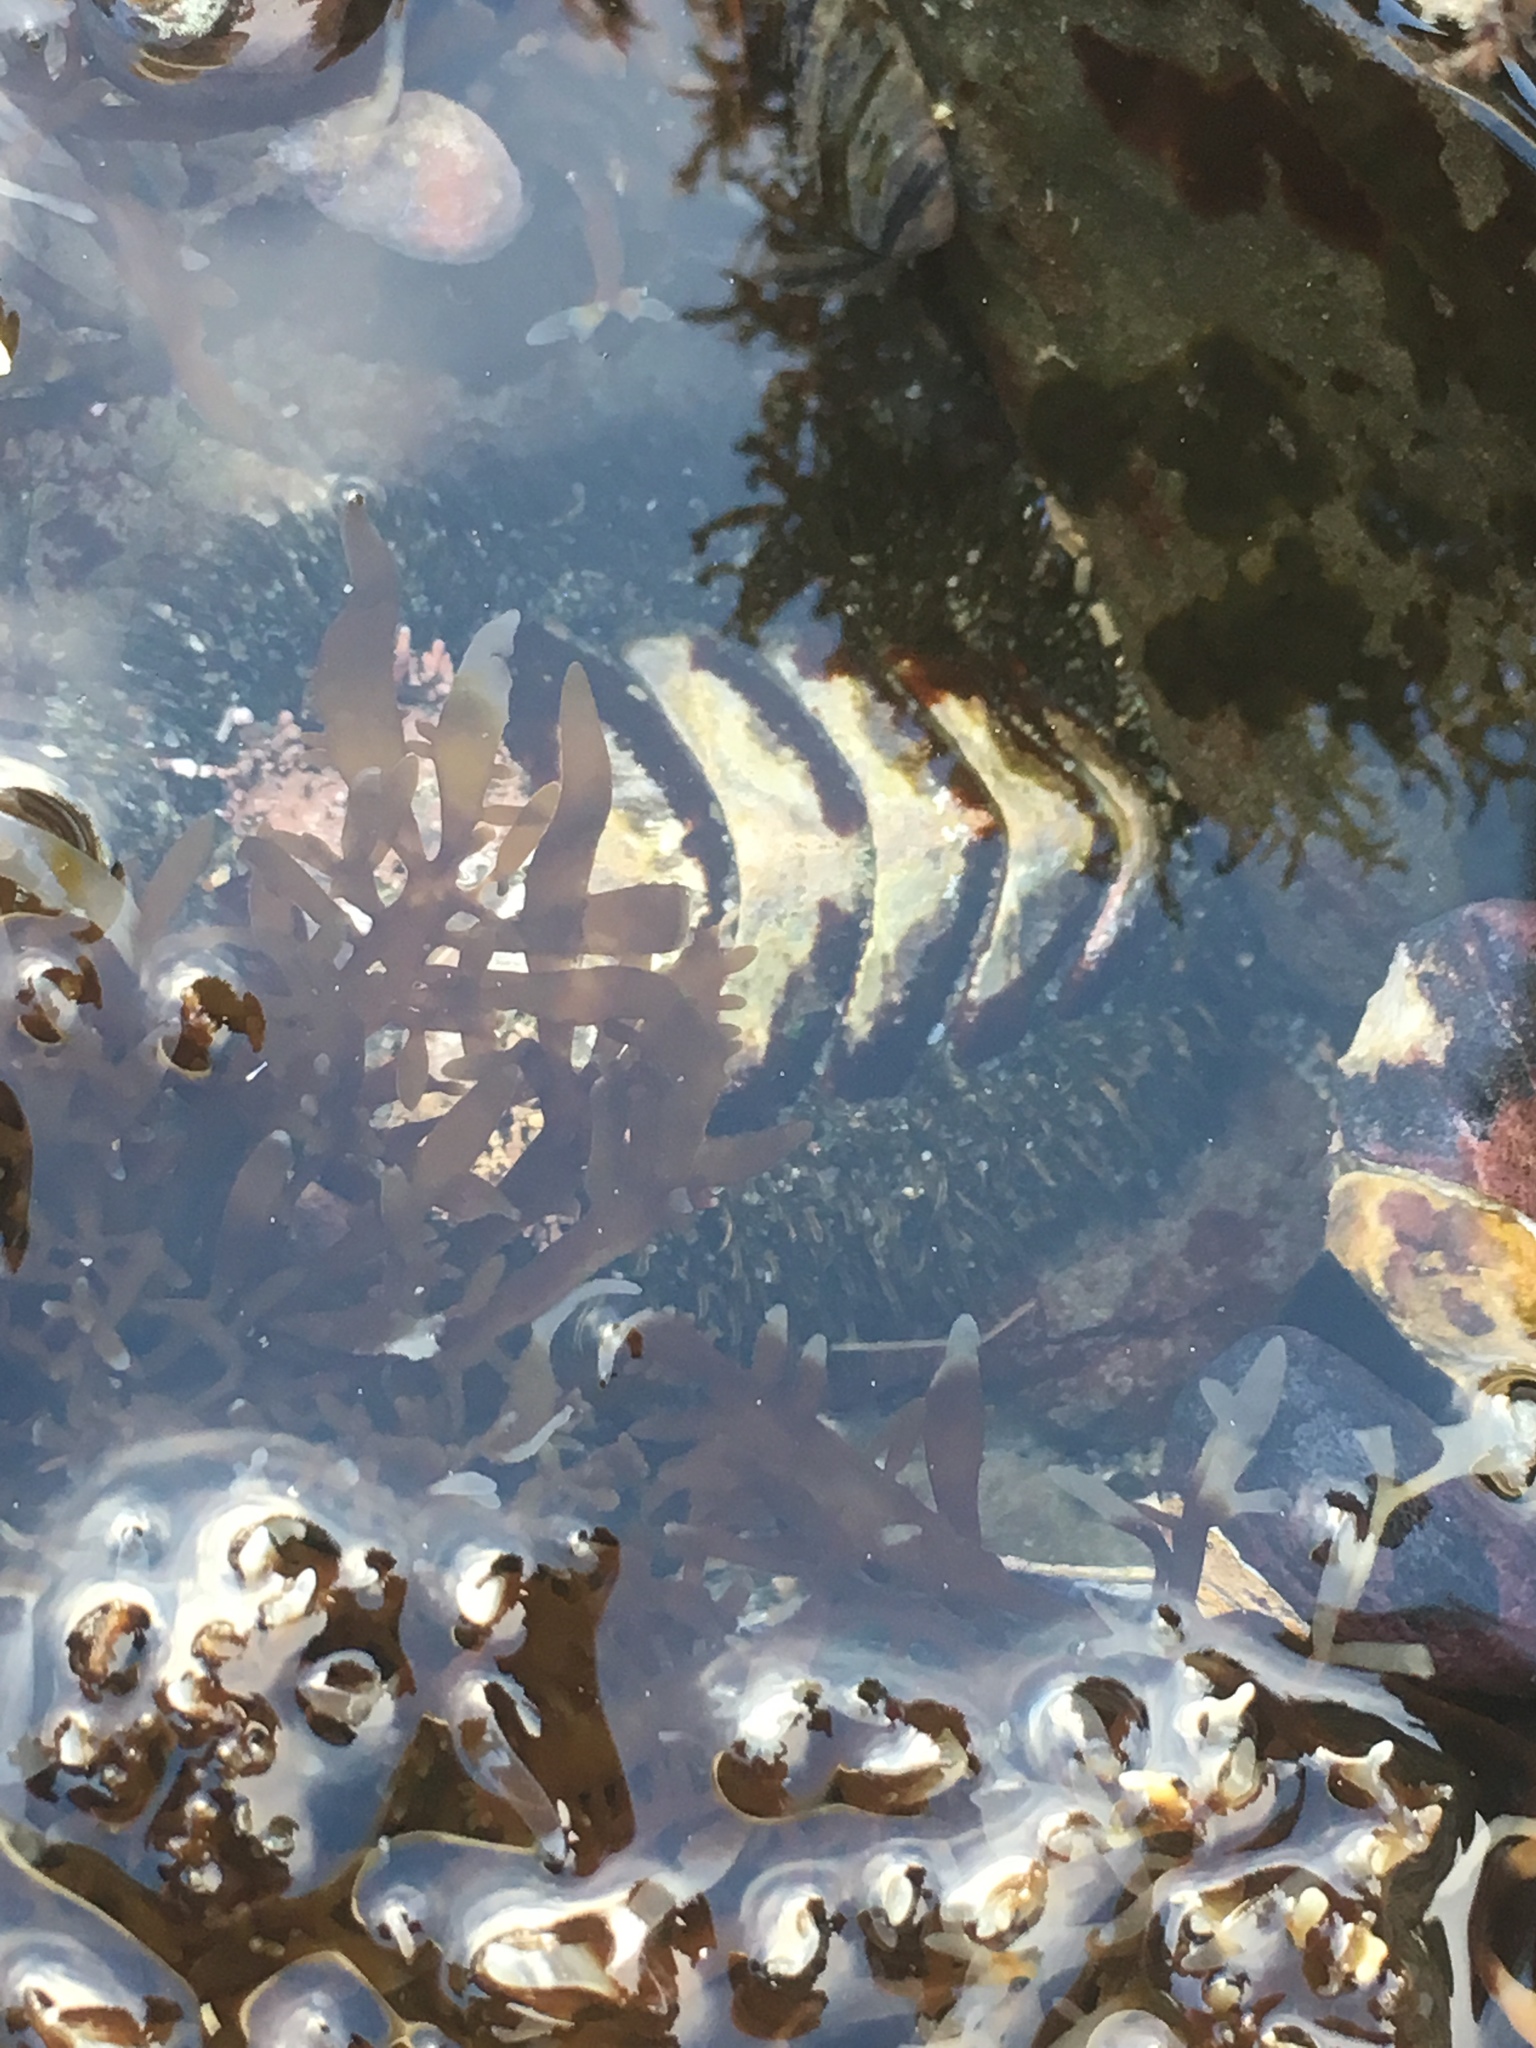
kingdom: Animalia
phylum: Mollusca
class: Polyplacophora
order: Chitonida
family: Mopaliidae
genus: Mopalia
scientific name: Mopalia muscosa
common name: Mossy chiton
